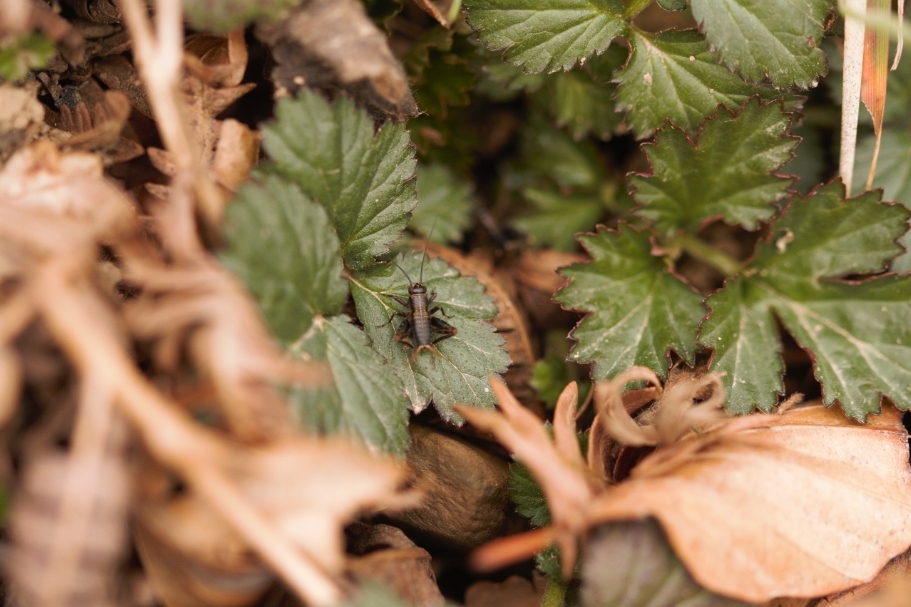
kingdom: Animalia
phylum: Arthropoda
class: Insecta
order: Orthoptera
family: Trigonidiidae
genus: Nemobius
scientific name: Nemobius sylvestris
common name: Wood-cricket
